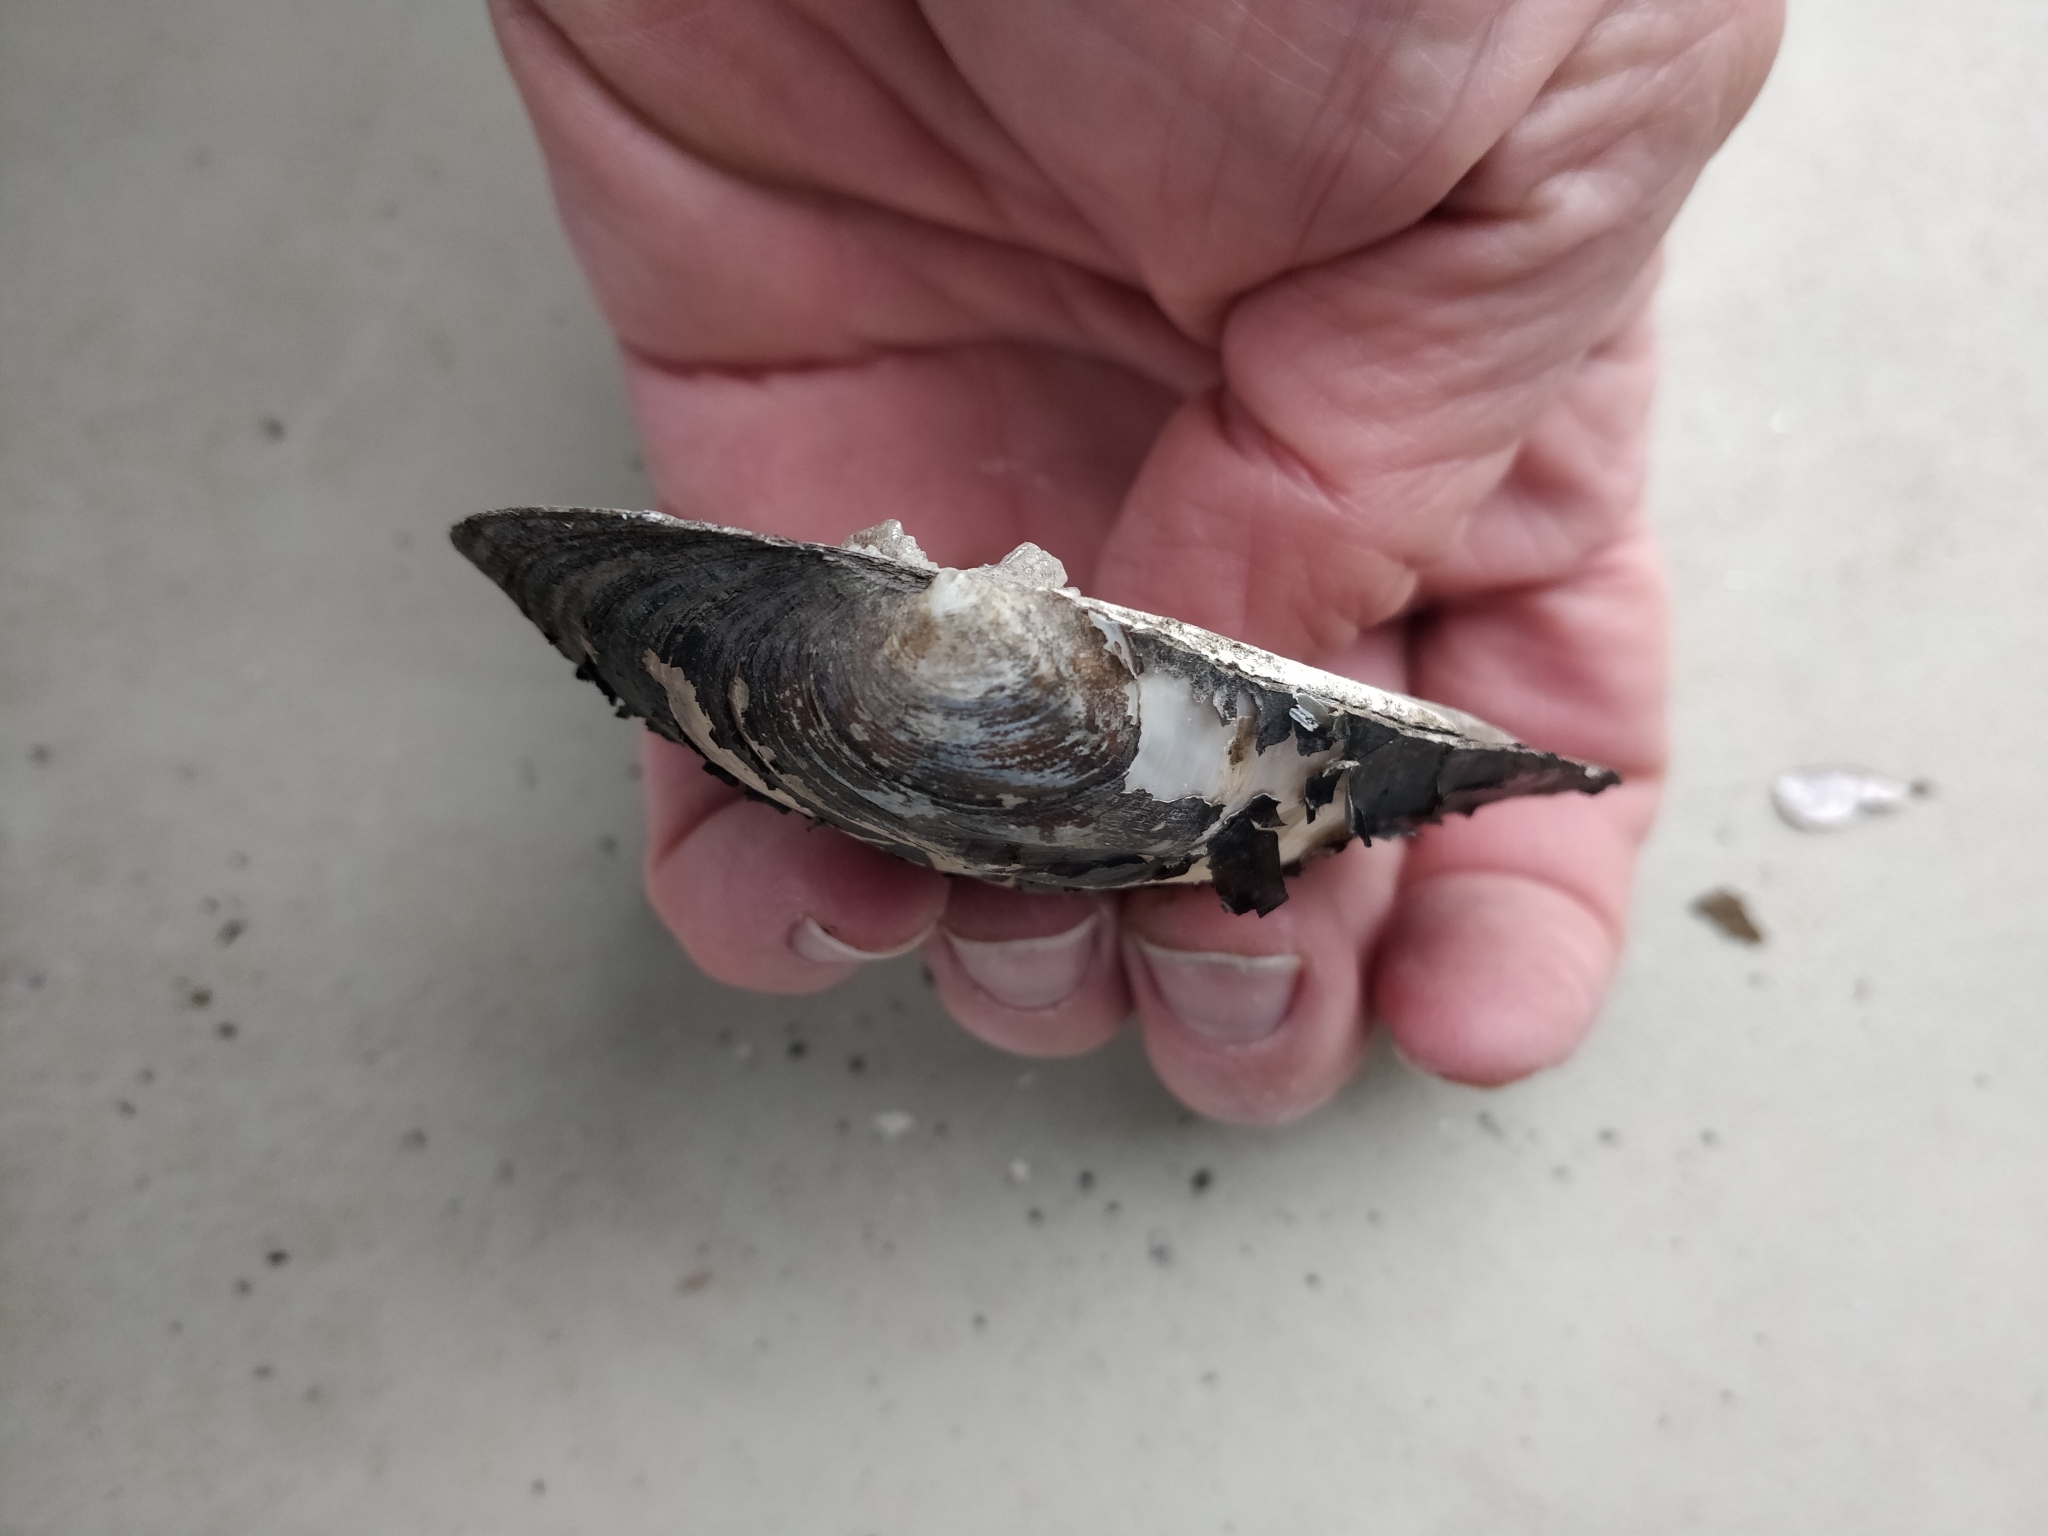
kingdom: Animalia
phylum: Mollusca
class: Bivalvia
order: Unionida
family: Unionidae
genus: Amblema
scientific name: Amblema plicata
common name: Threeridge
